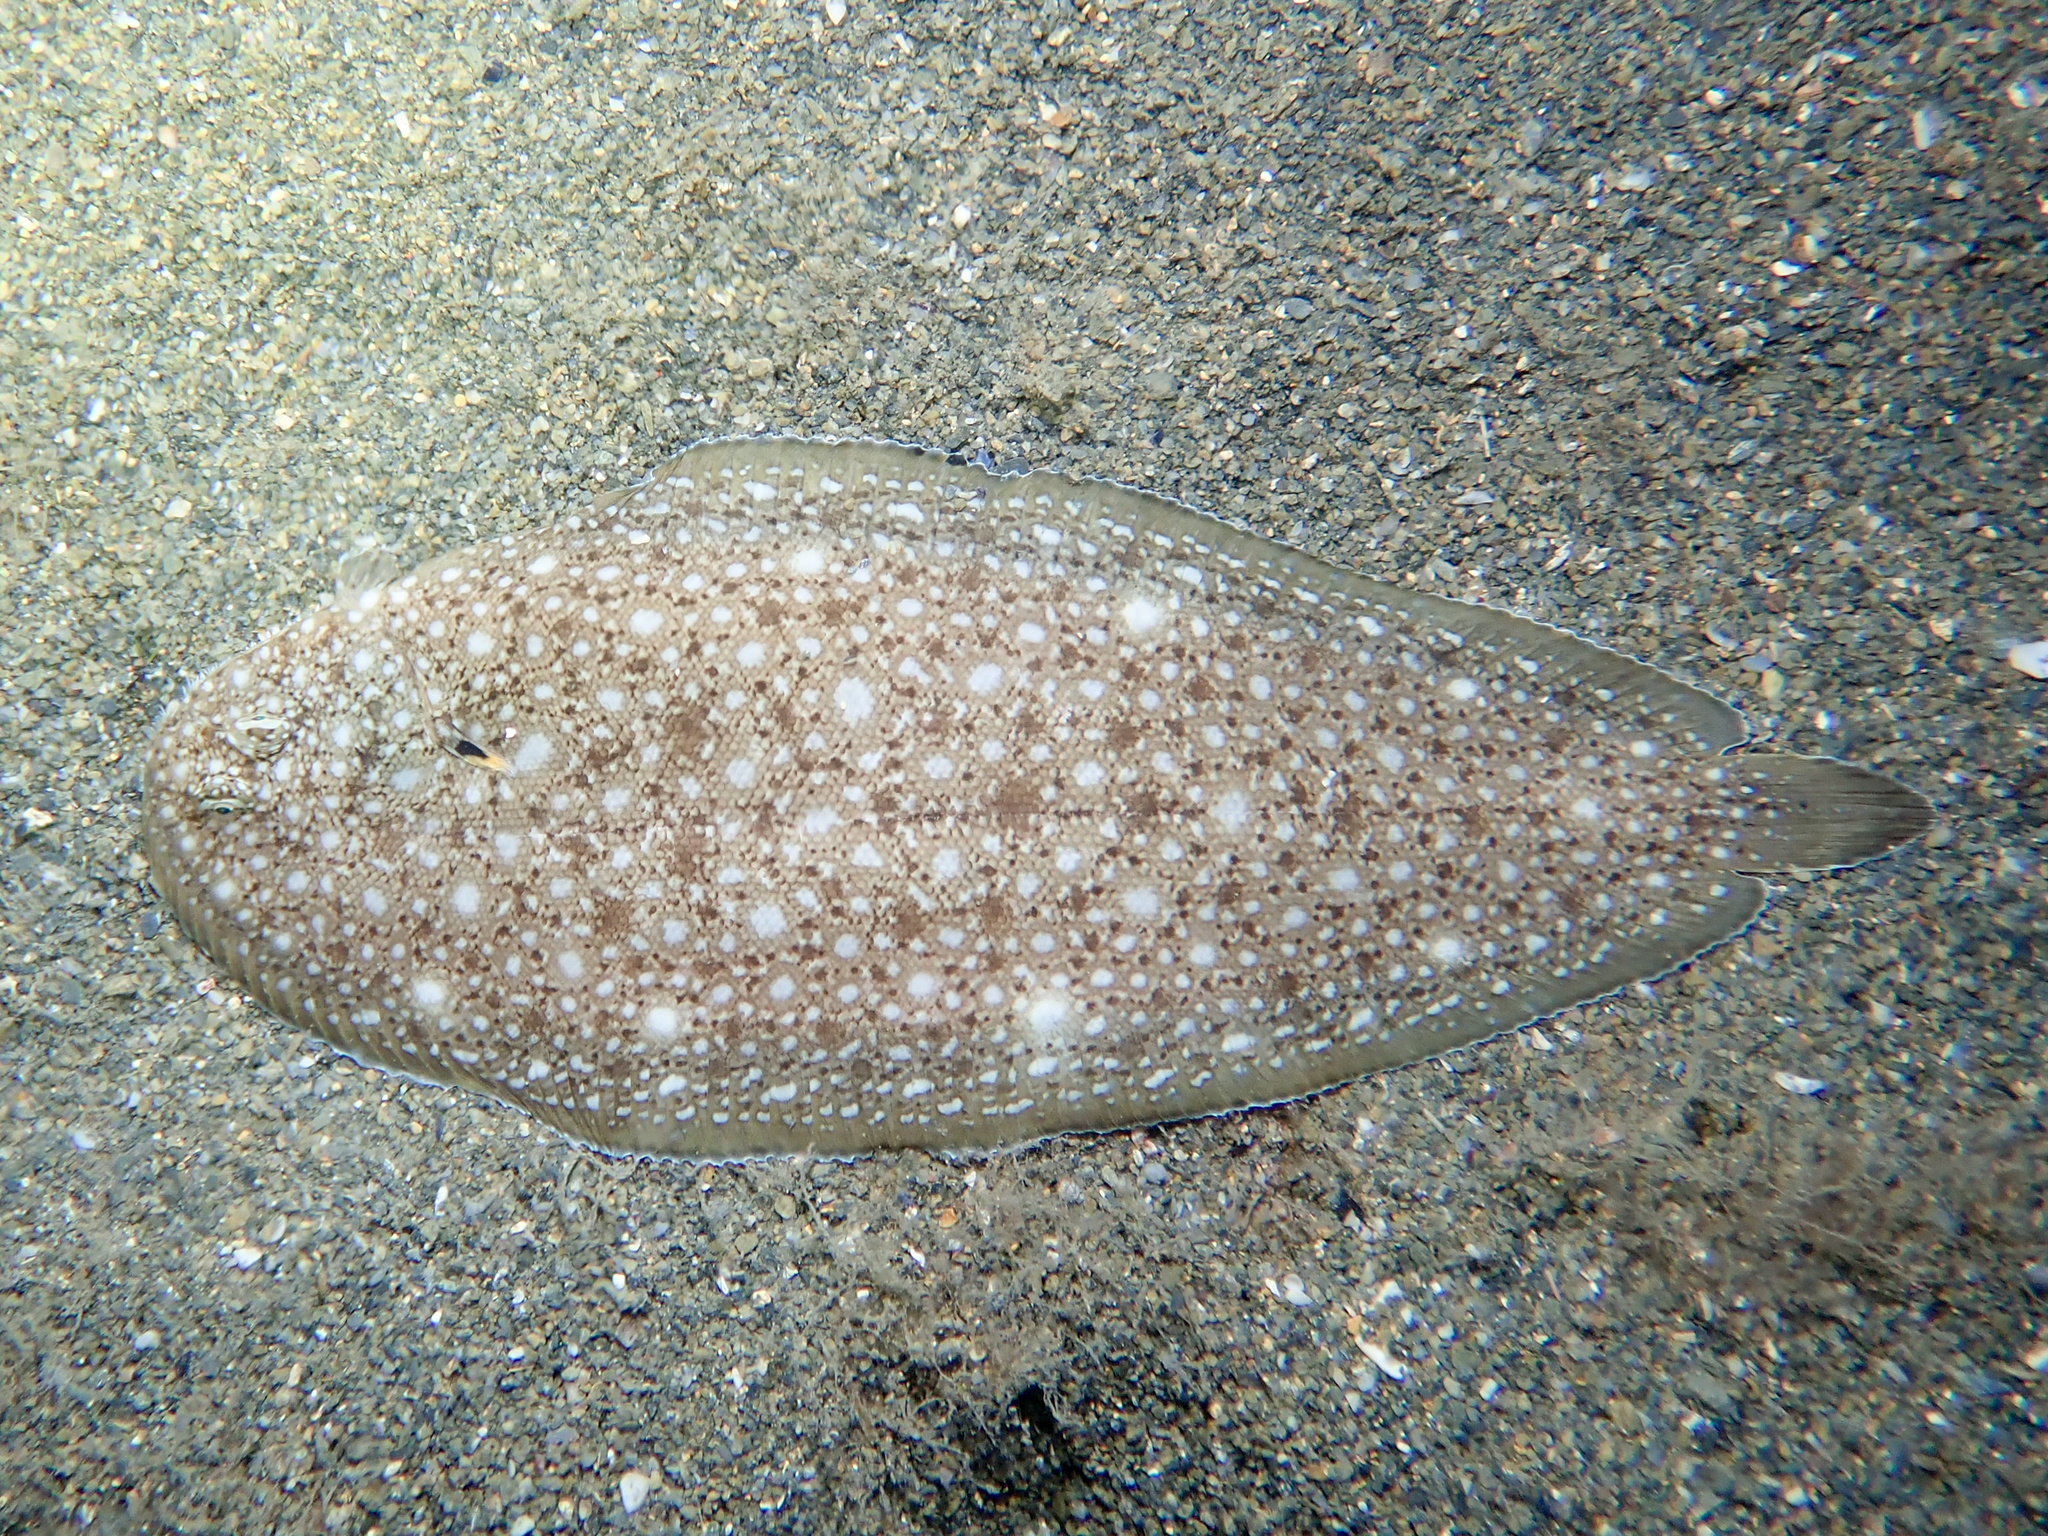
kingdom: Animalia
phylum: Chordata
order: Pleuronectiformes
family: Soleidae
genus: Synapturichthys
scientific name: Synapturichthys kleinii
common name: Klein's sole
